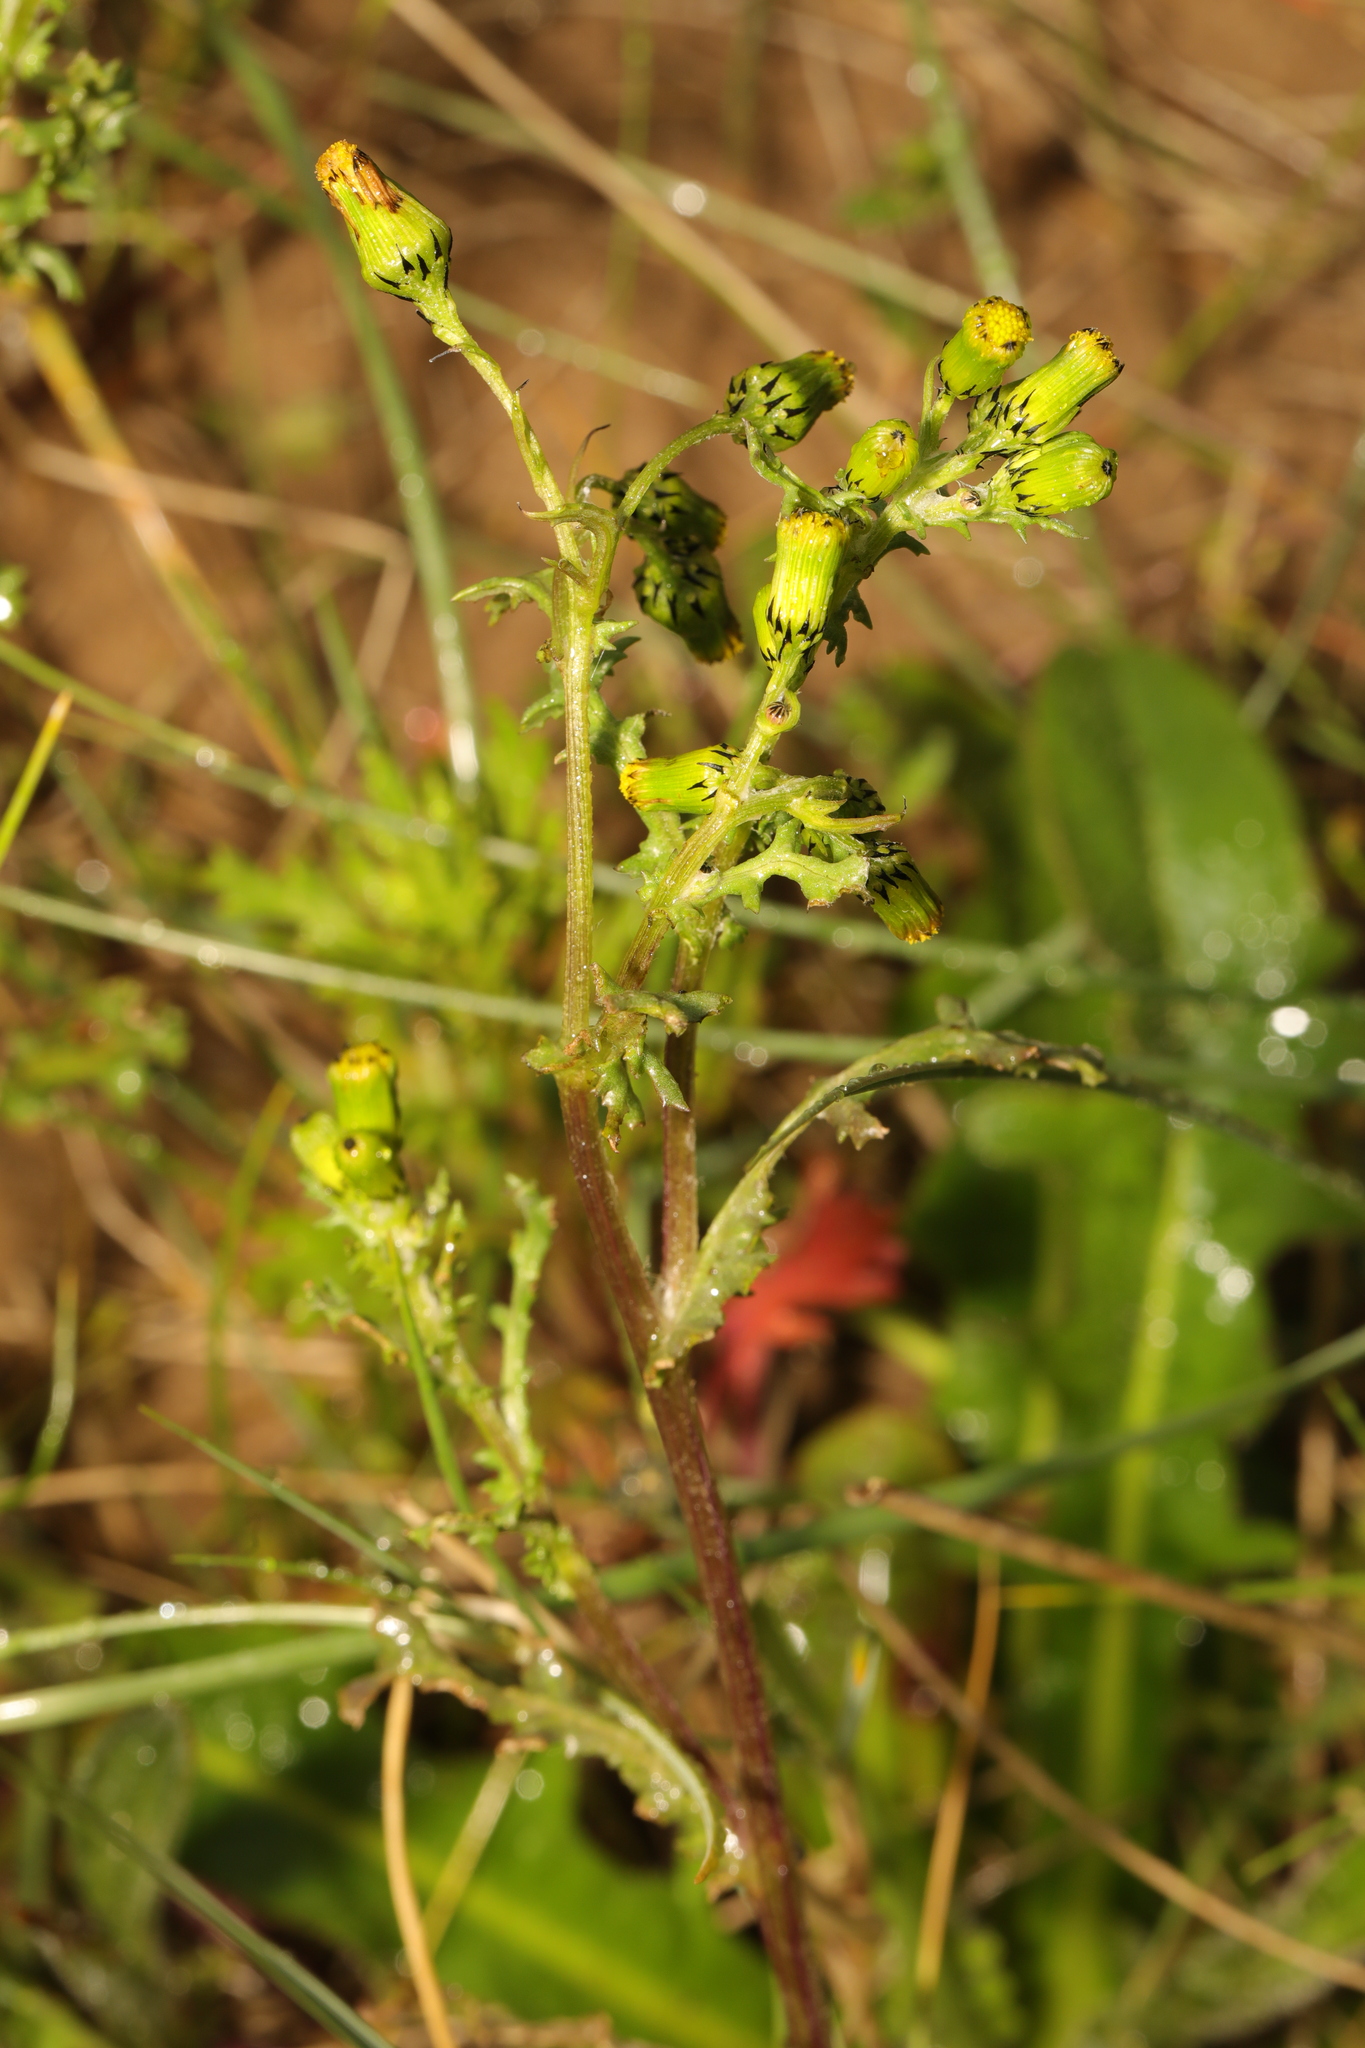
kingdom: Plantae
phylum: Tracheophyta
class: Magnoliopsida
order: Asterales
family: Asteraceae
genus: Senecio
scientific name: Senecio vulgaris
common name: Old-man-in-the-spring
